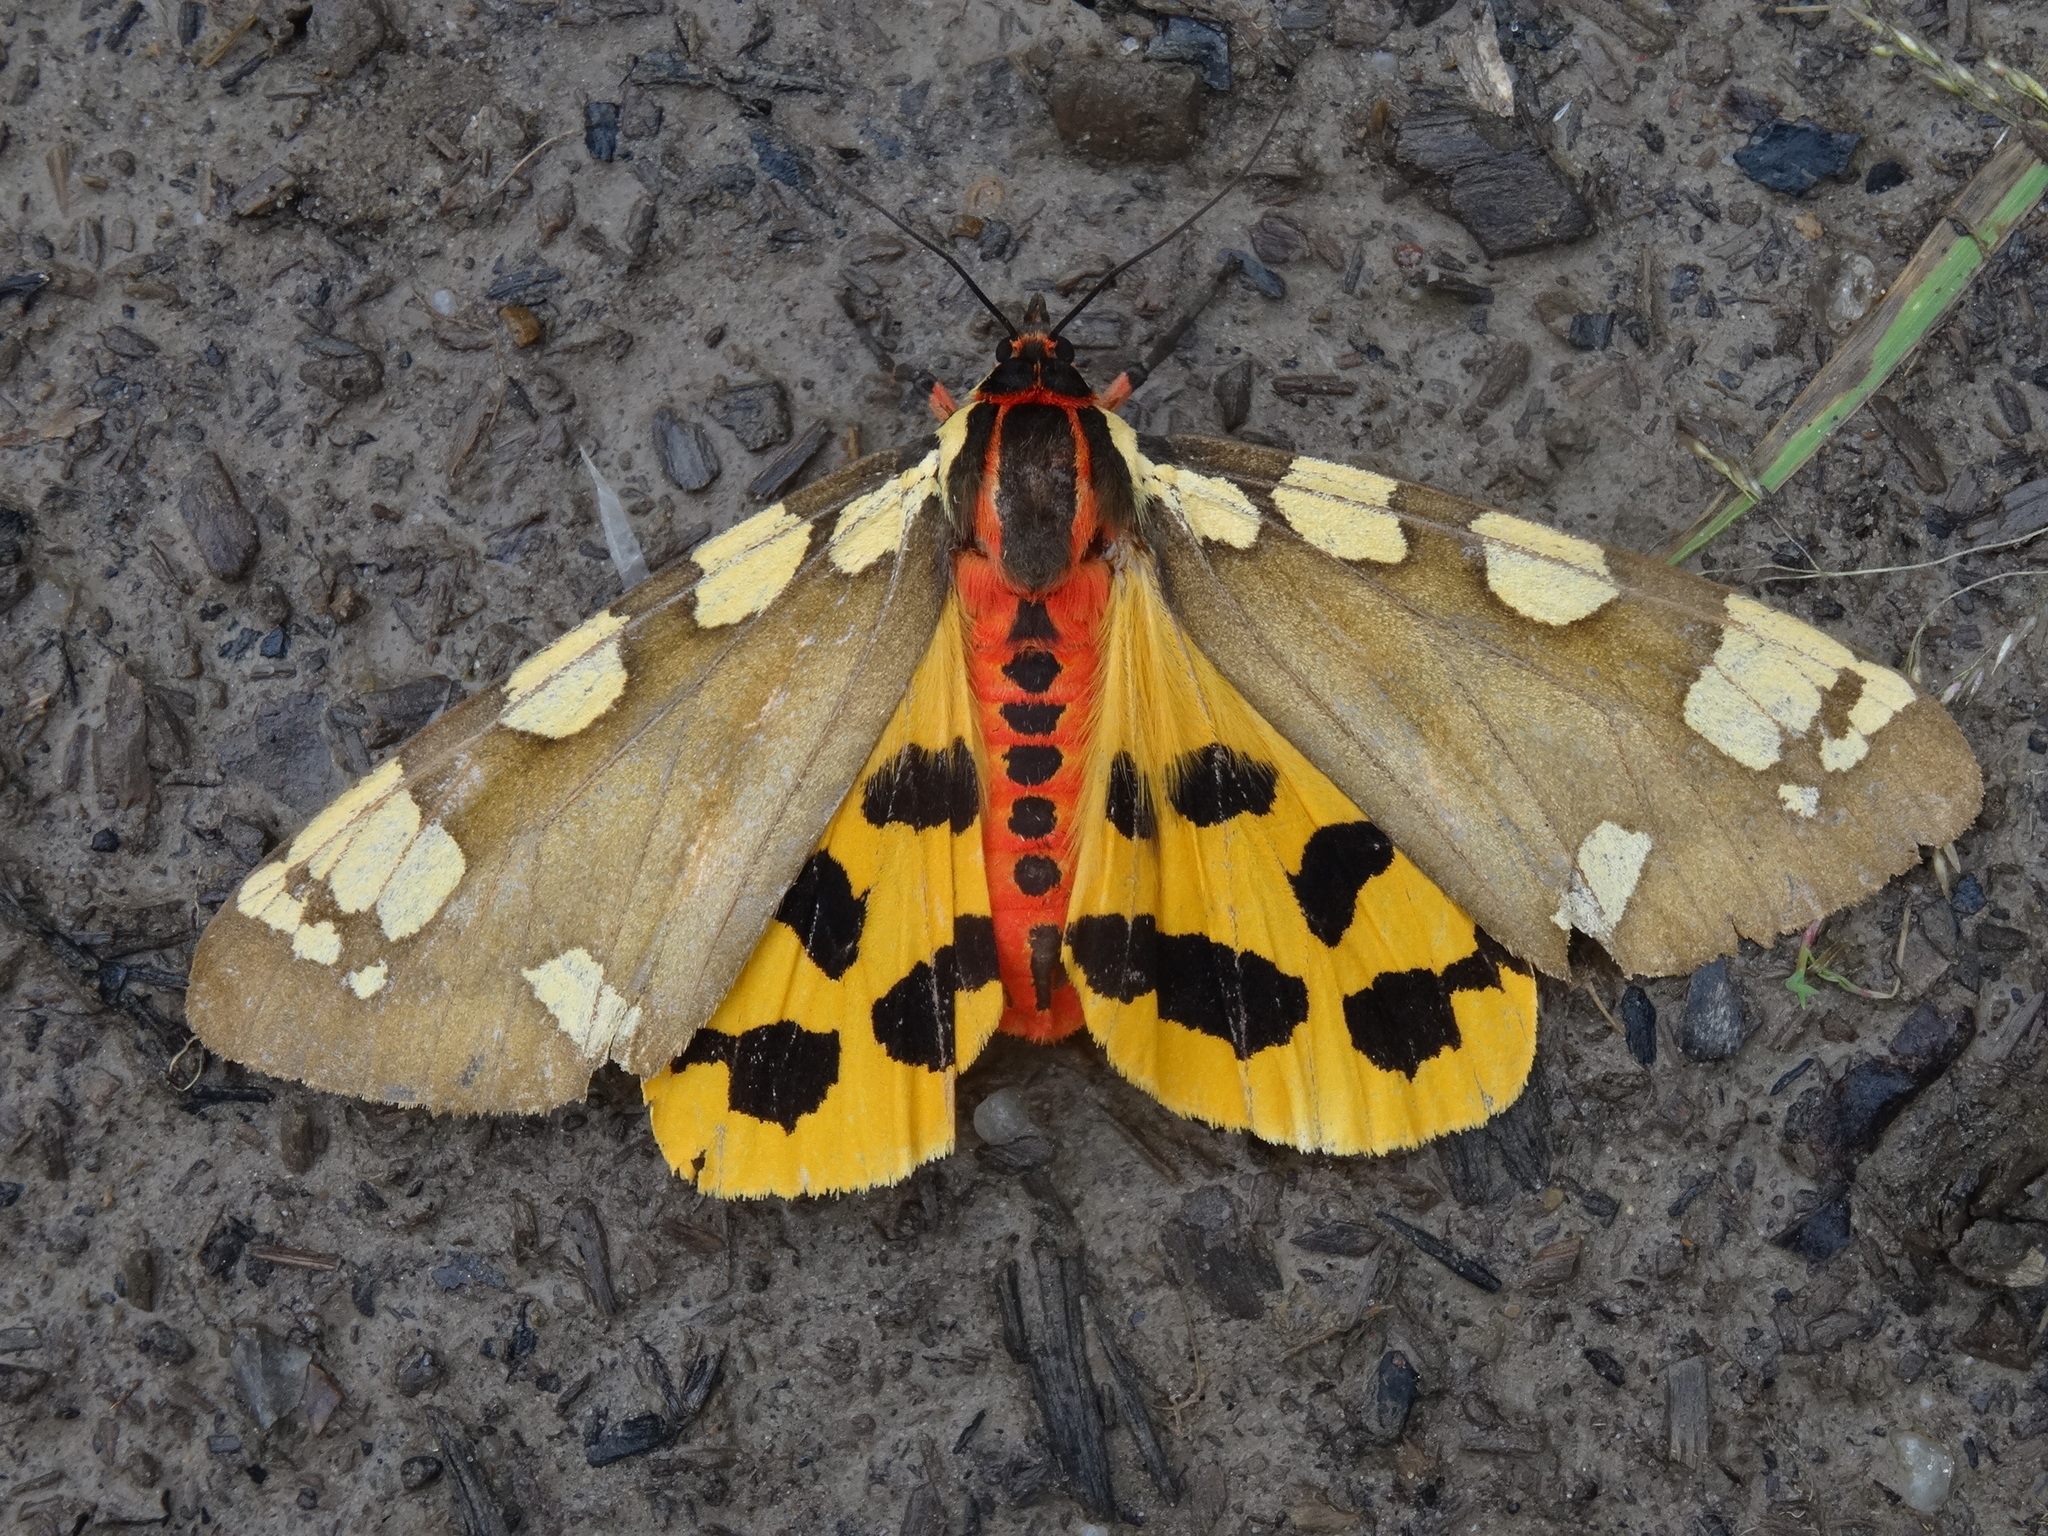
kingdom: Animalia
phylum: Arthropoda
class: Insecta
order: Lepidoptera
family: Erebidae
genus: Pericallia
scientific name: Pericallia matronula
